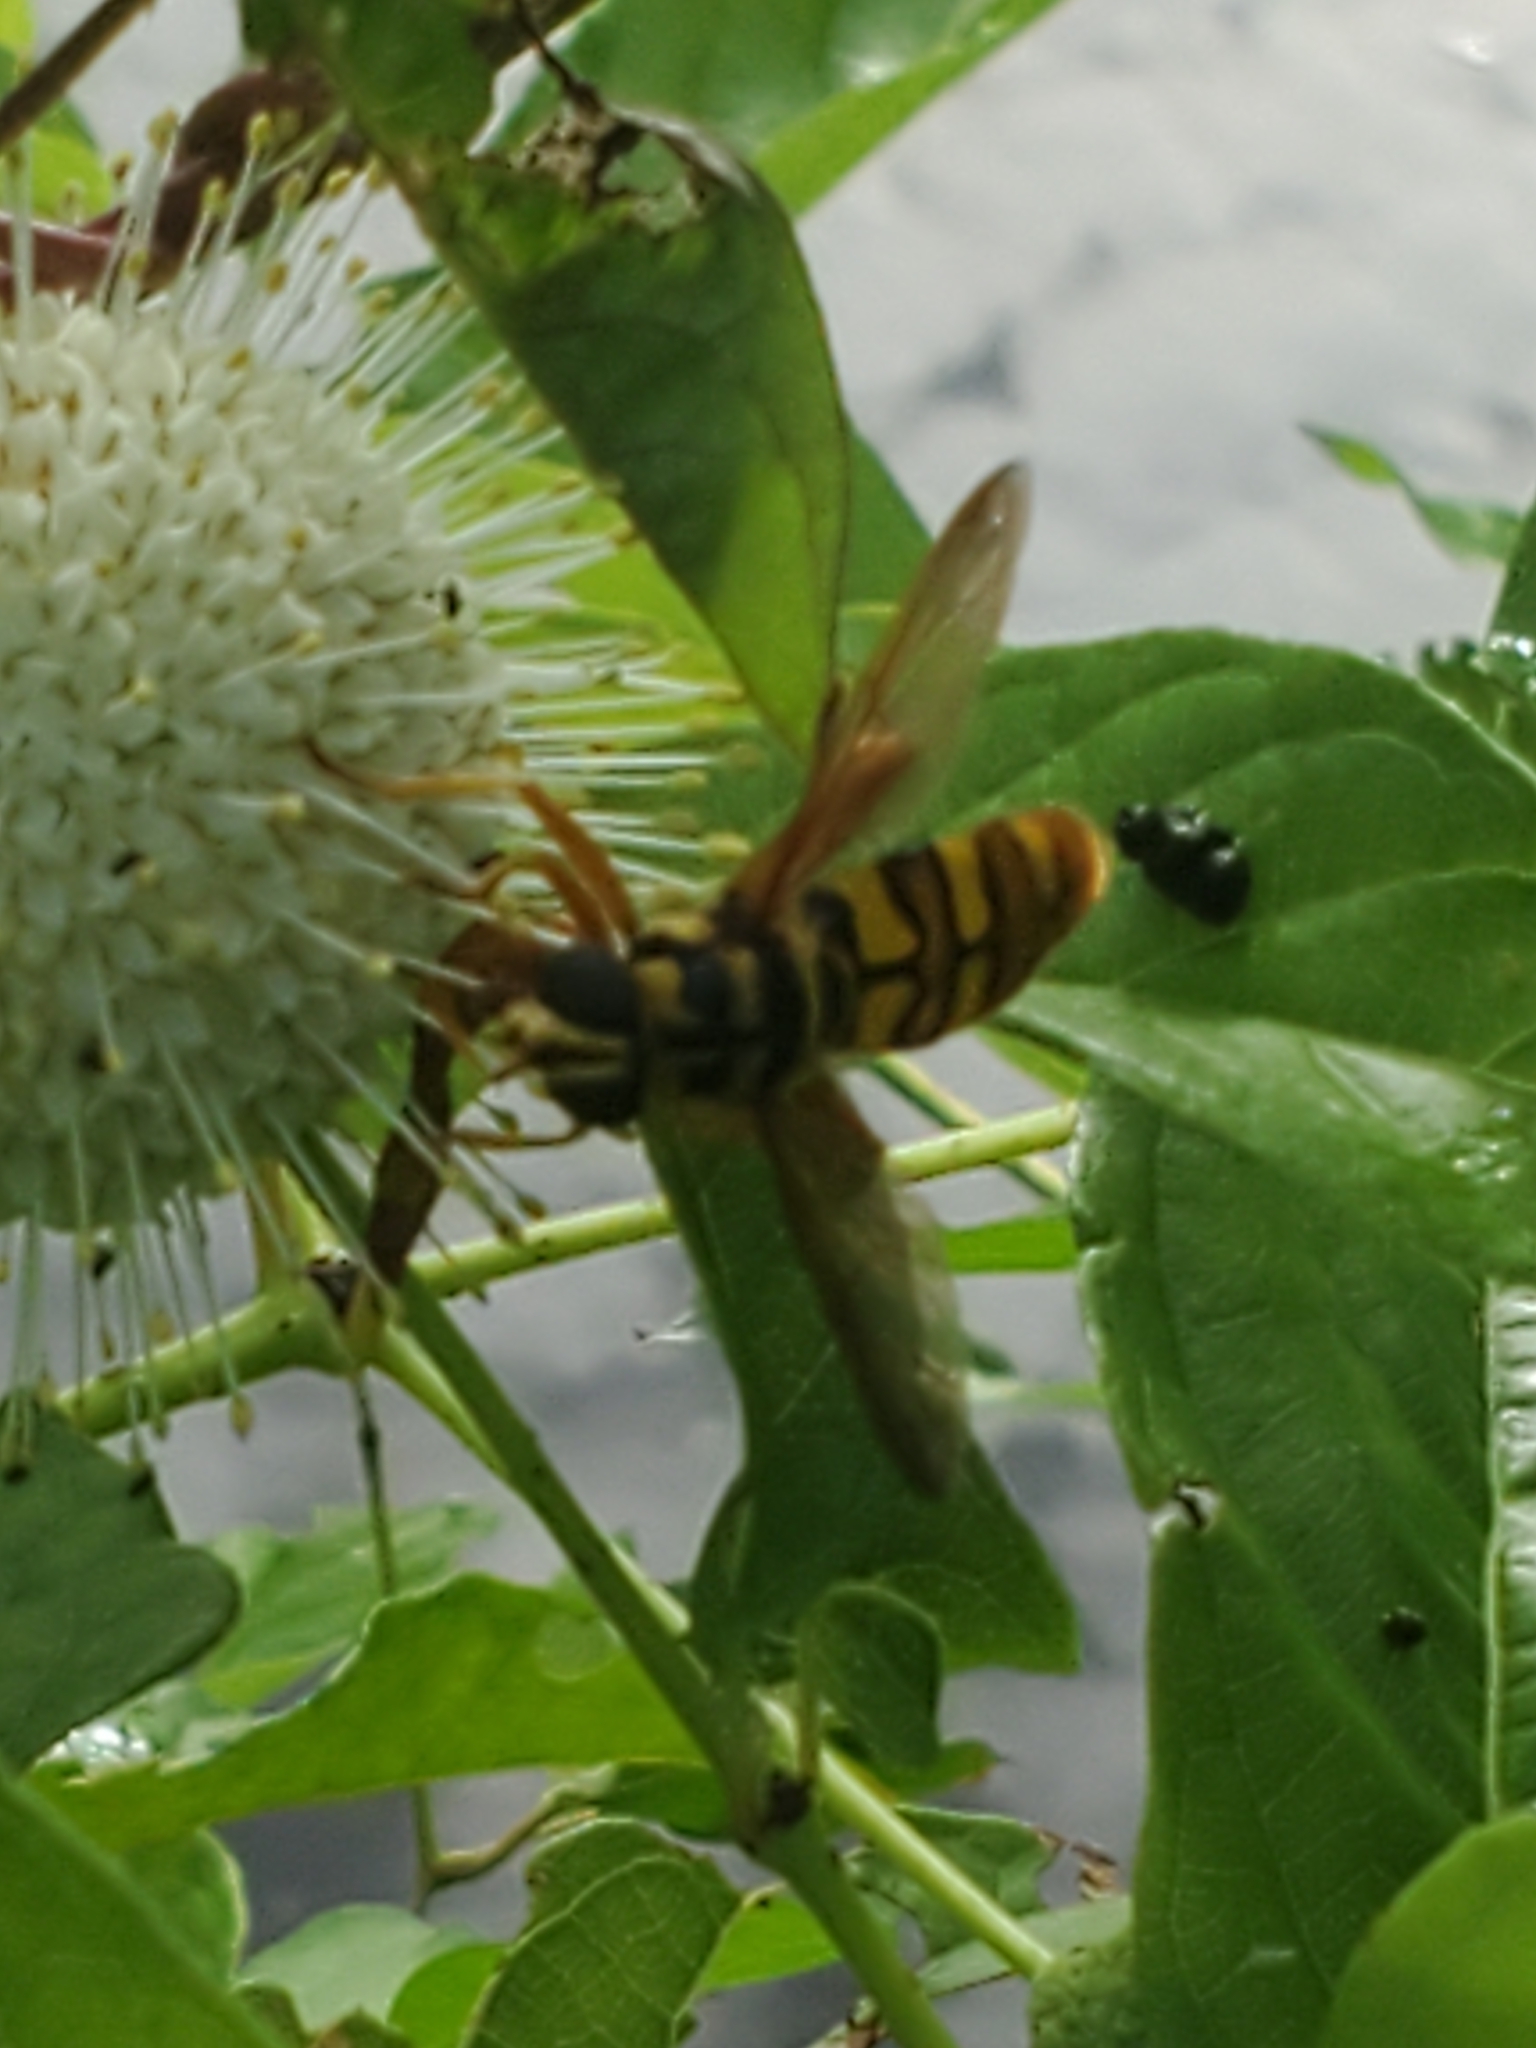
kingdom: Animalia
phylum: Arthropoda
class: Insecta
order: Diptera
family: Syrphidae
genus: Milesia
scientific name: Milesia virginiensis
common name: Virginia giant
